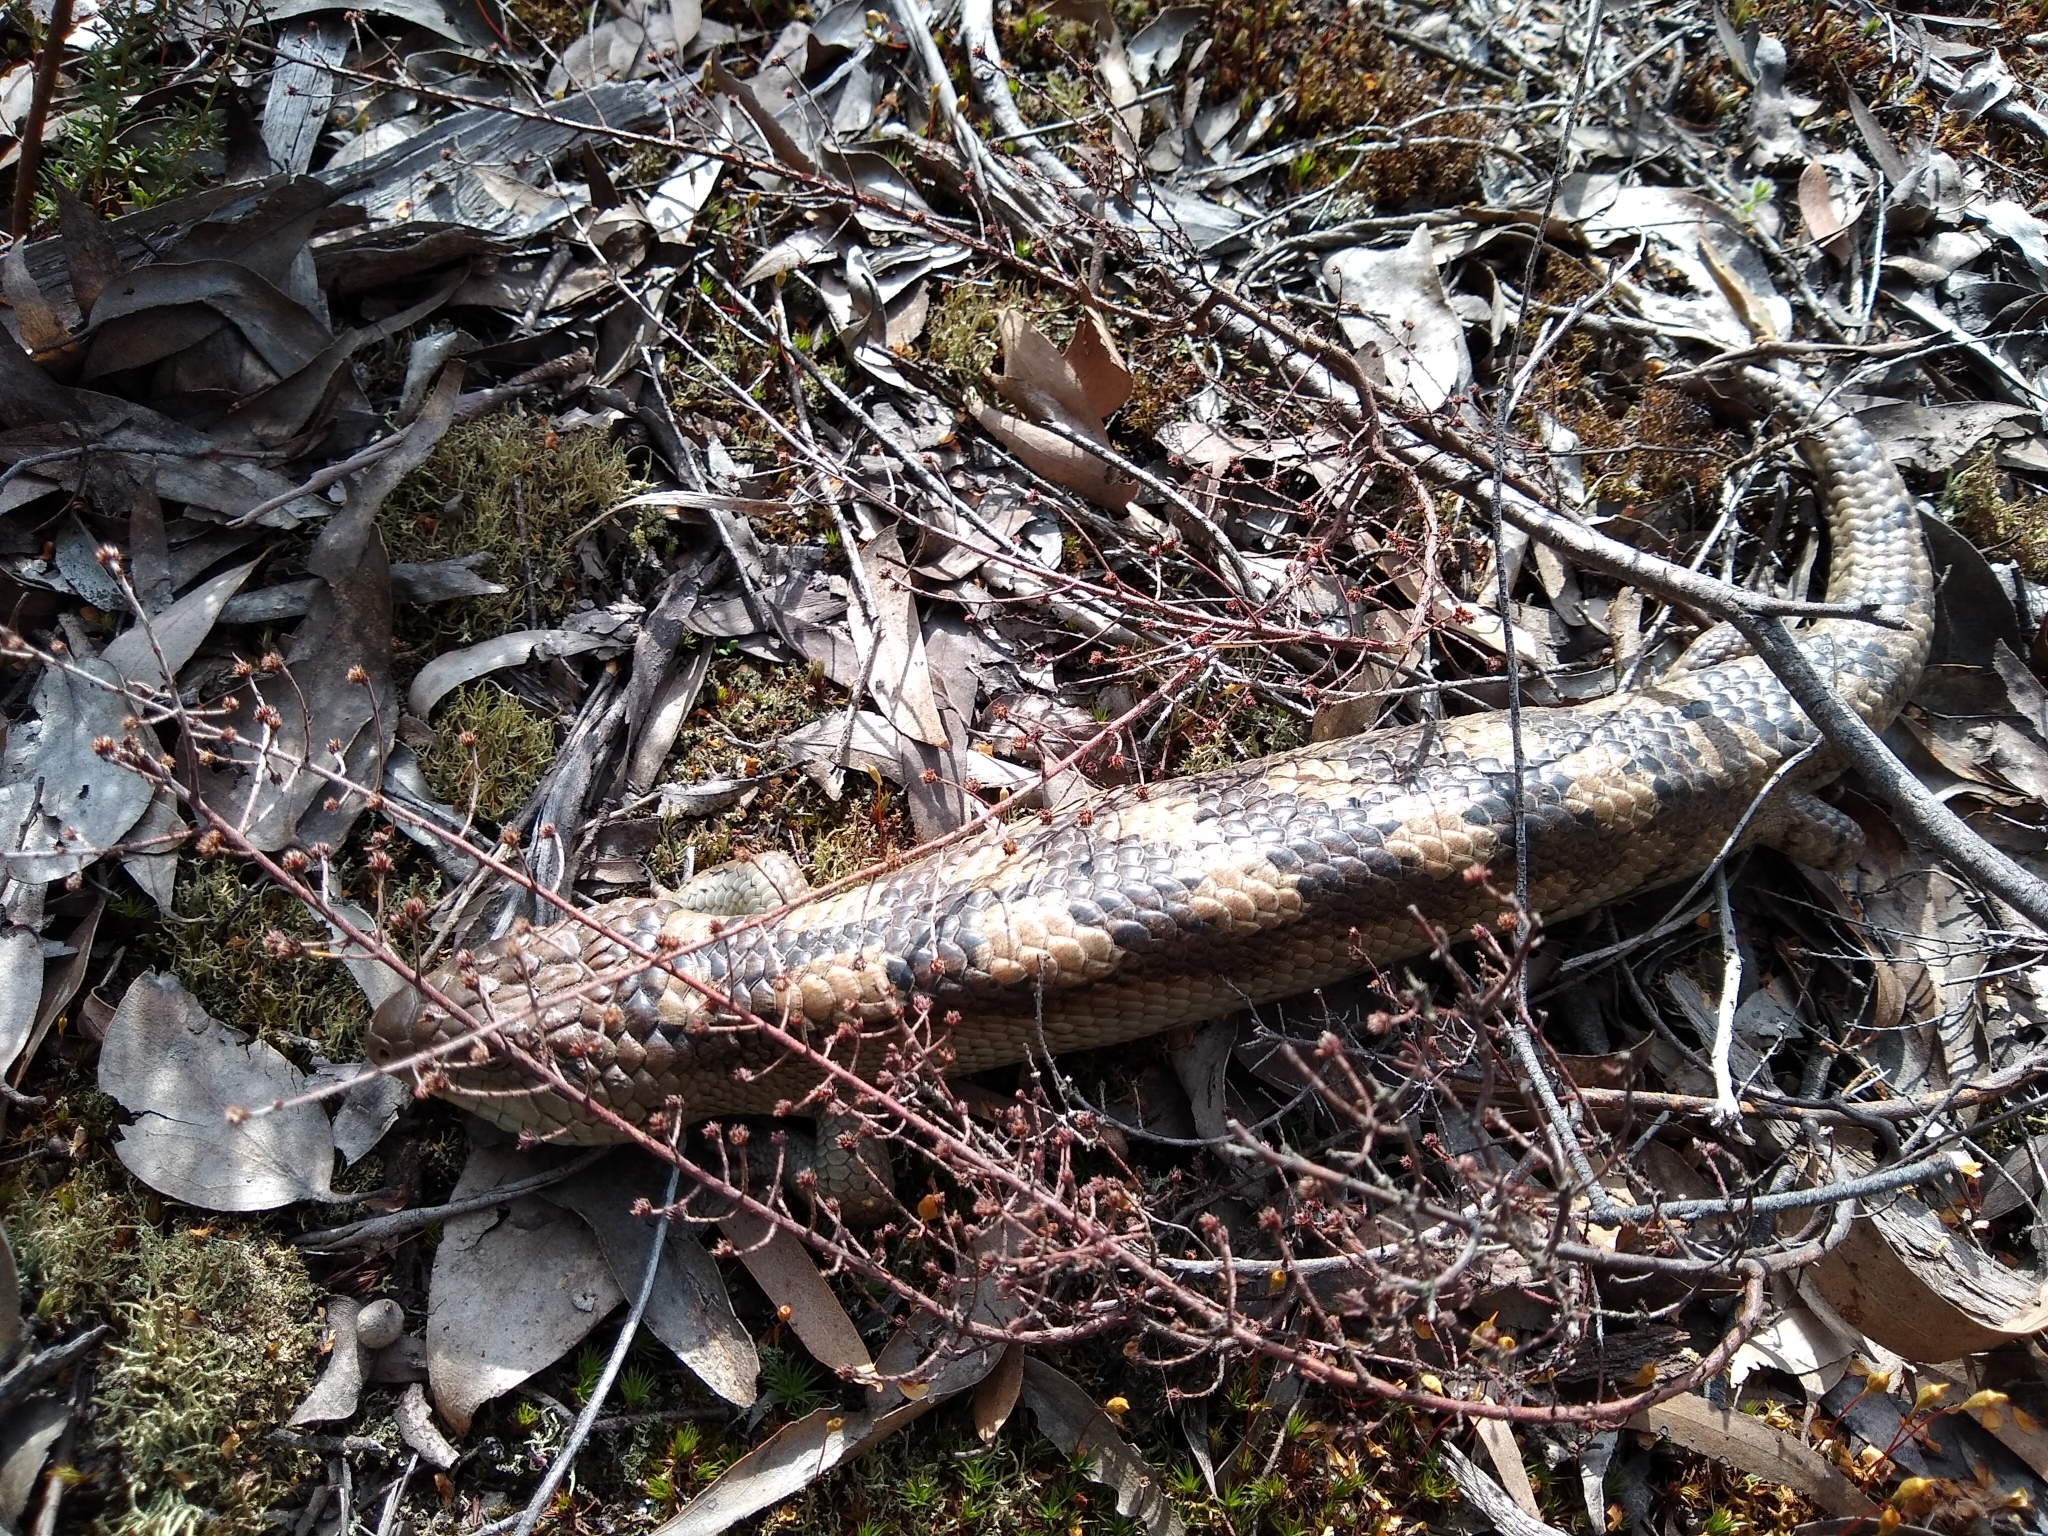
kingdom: Animalia
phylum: Chordata
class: Squamata
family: Scincidae
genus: Tiliqua
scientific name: Tiliqua nigrolutea
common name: Blotched blue-tongued lizard
